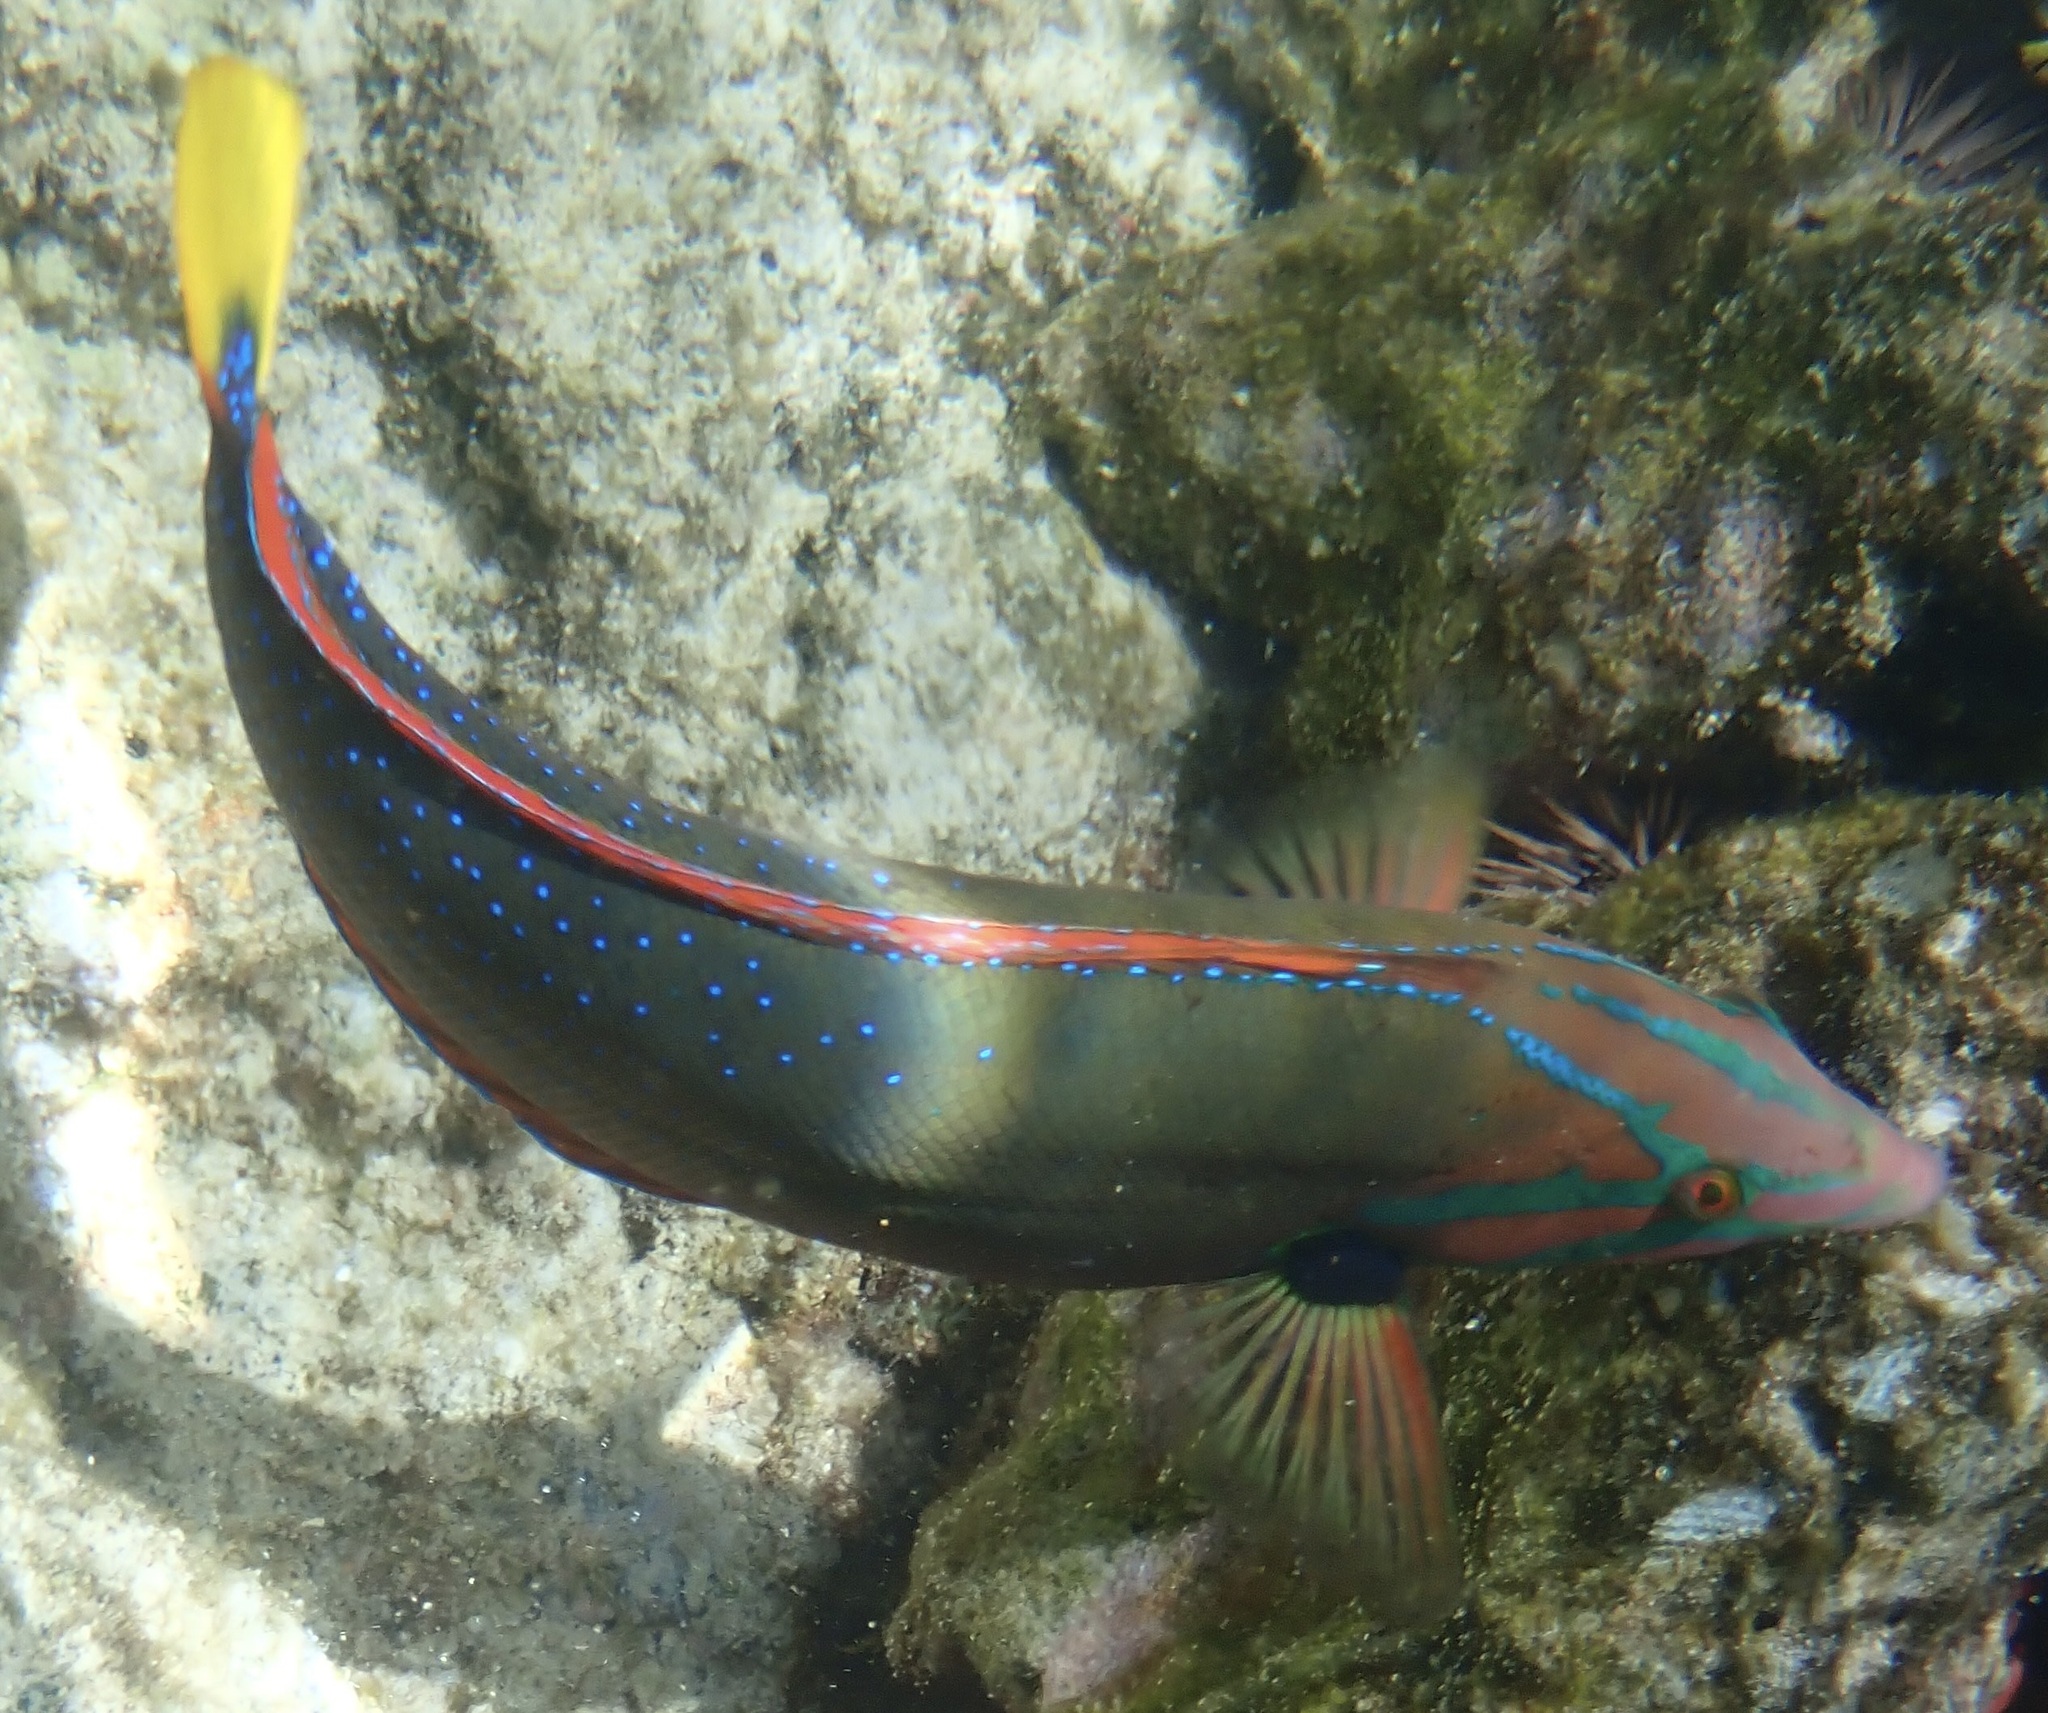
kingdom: Animalia
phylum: Chordata
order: Perciformes
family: Labridae
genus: Coris
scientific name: Coris gaimard
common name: Yellowtail coris
